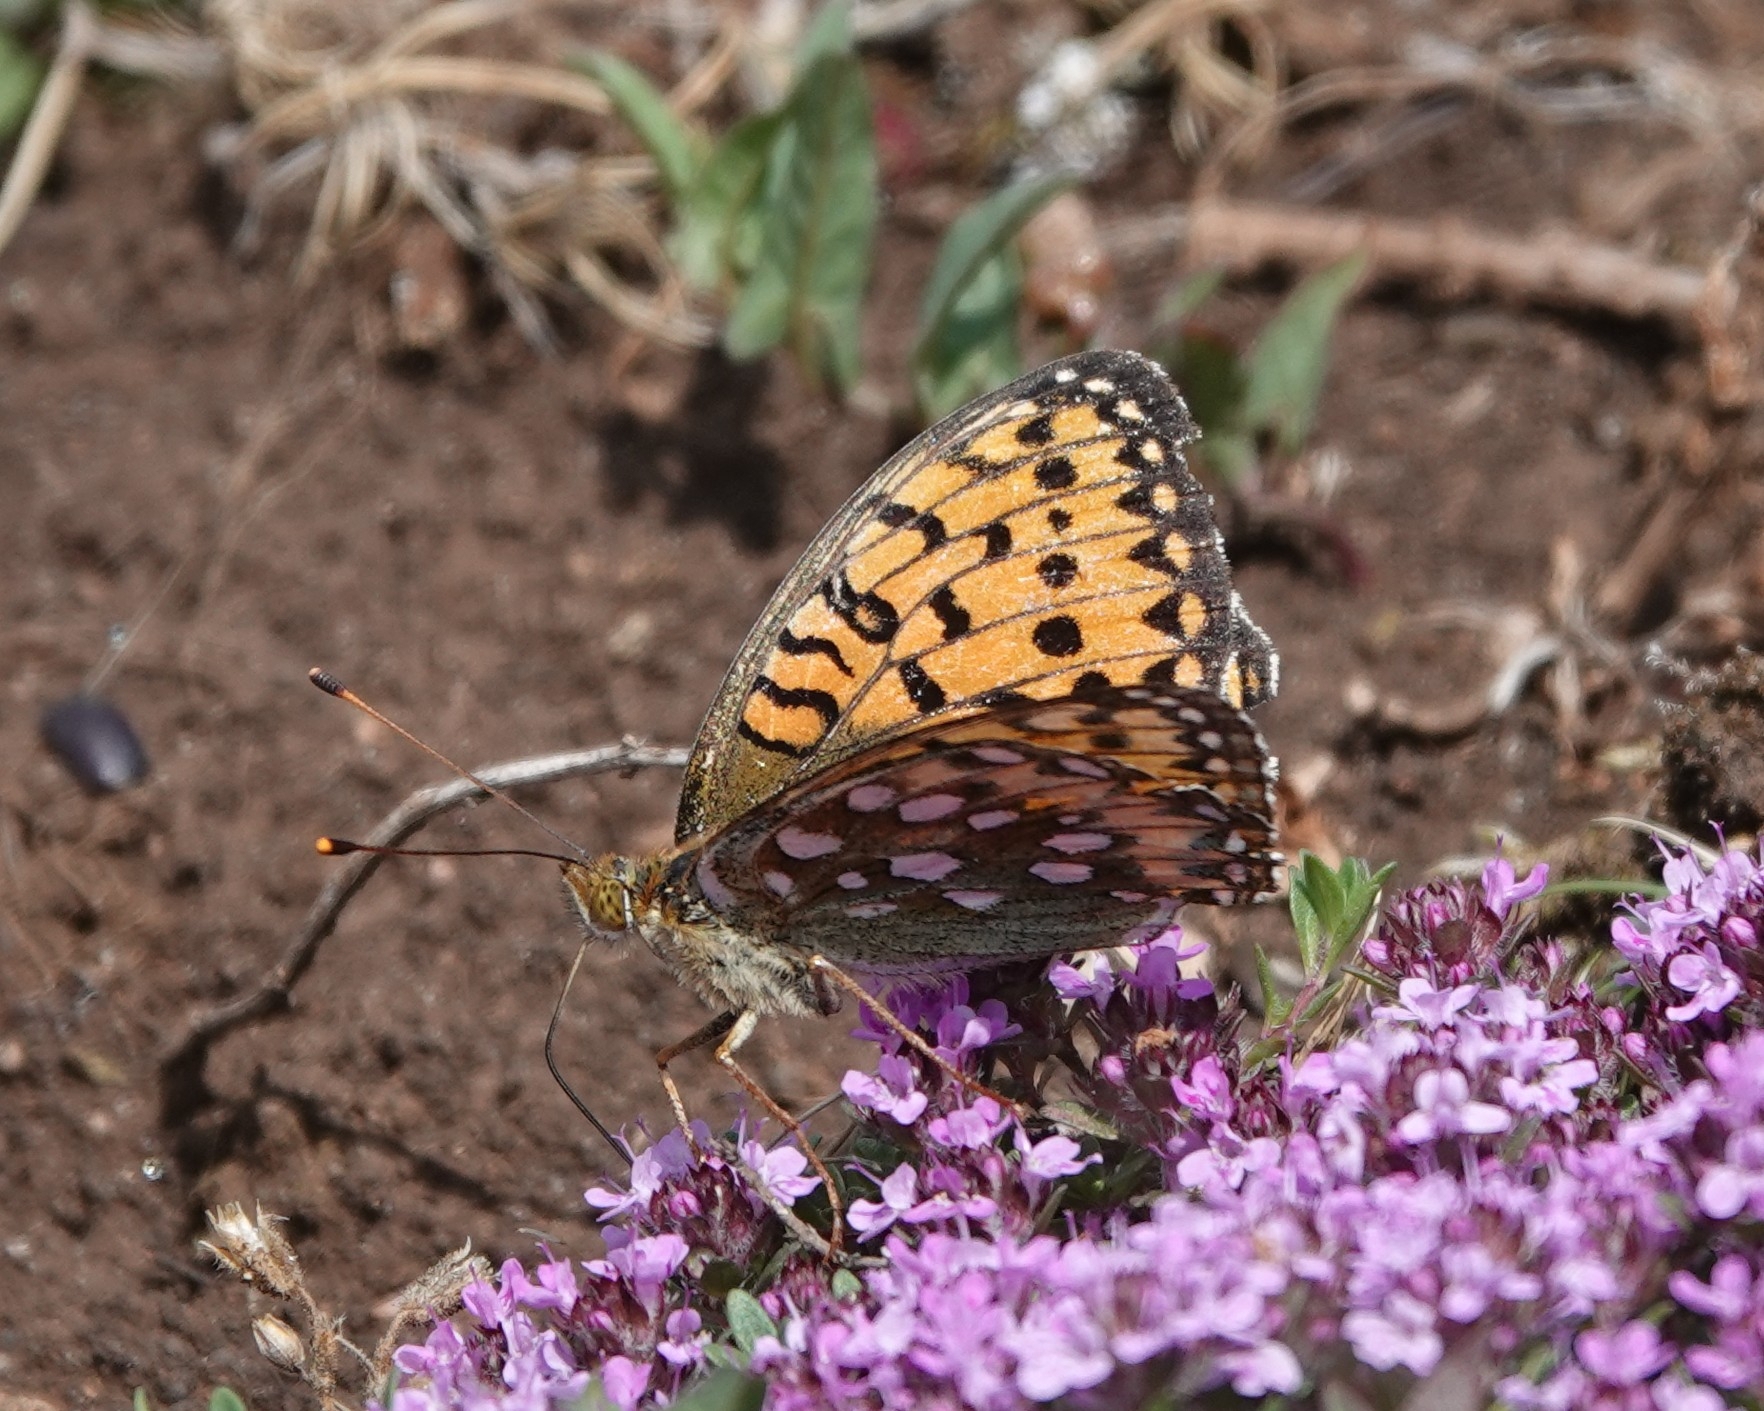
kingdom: Animalia
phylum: Arthropoda
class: Insecta
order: Lepidoptera
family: Nymphalidae
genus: Speyeria
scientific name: Speyeria aglaja
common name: Dark green fritillary
